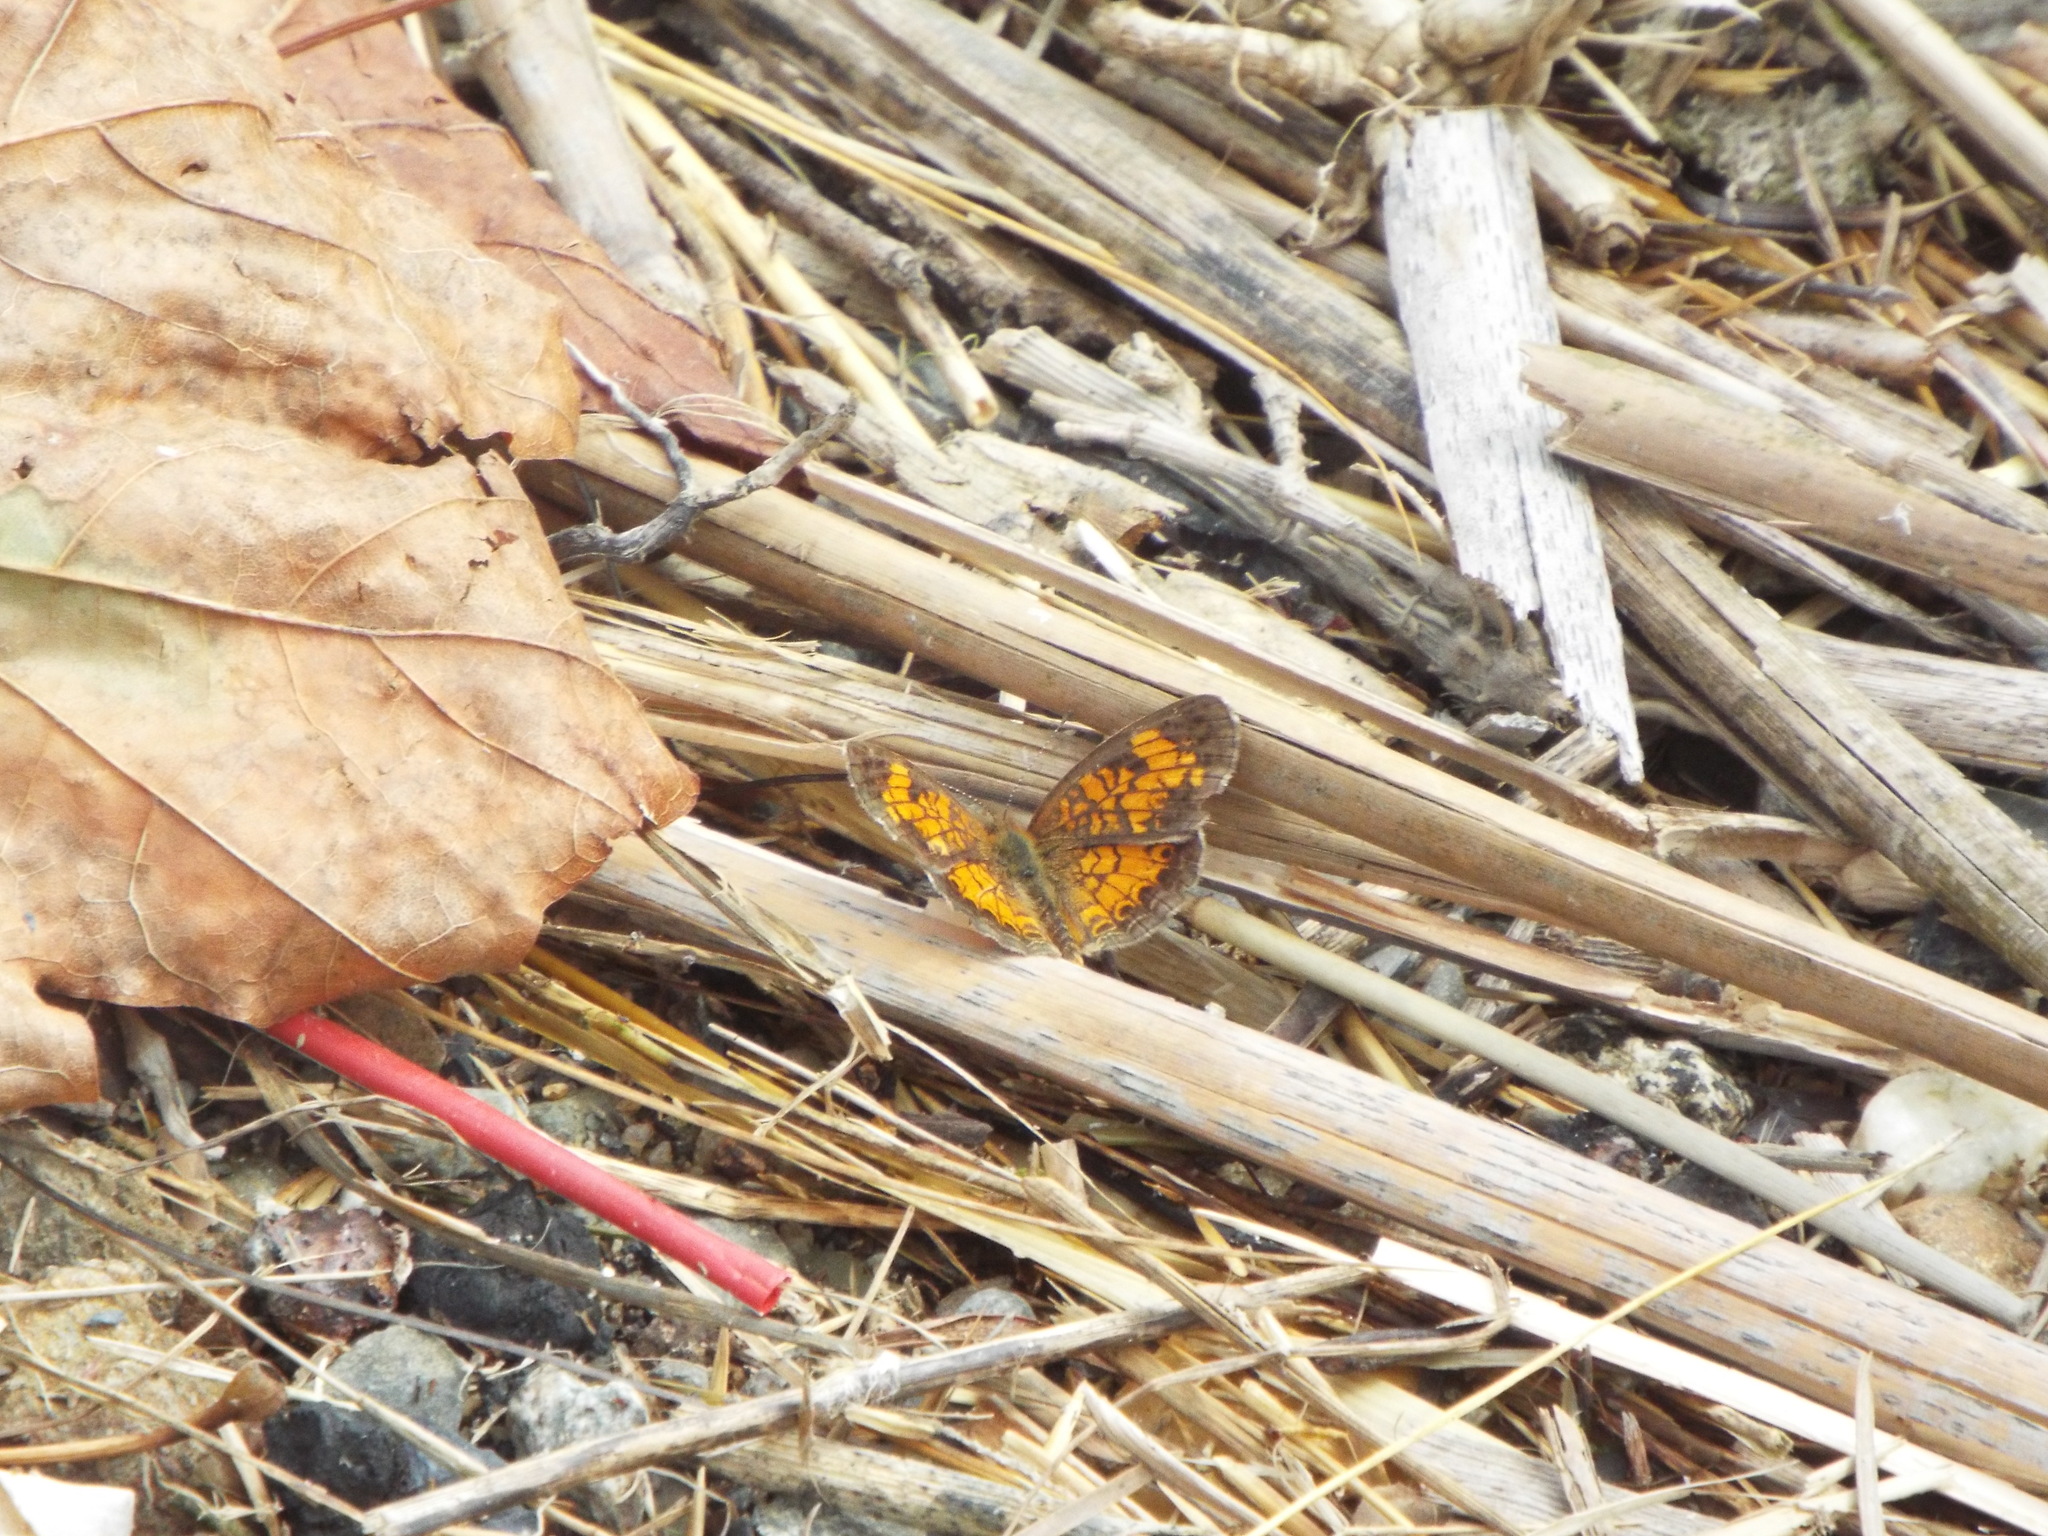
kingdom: Animalia
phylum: Arthropoda
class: Insecta
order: Lepidoptera
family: Nymphalidae
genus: Phyciodes
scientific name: Phyciodes tharos
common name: Pearl crescent
